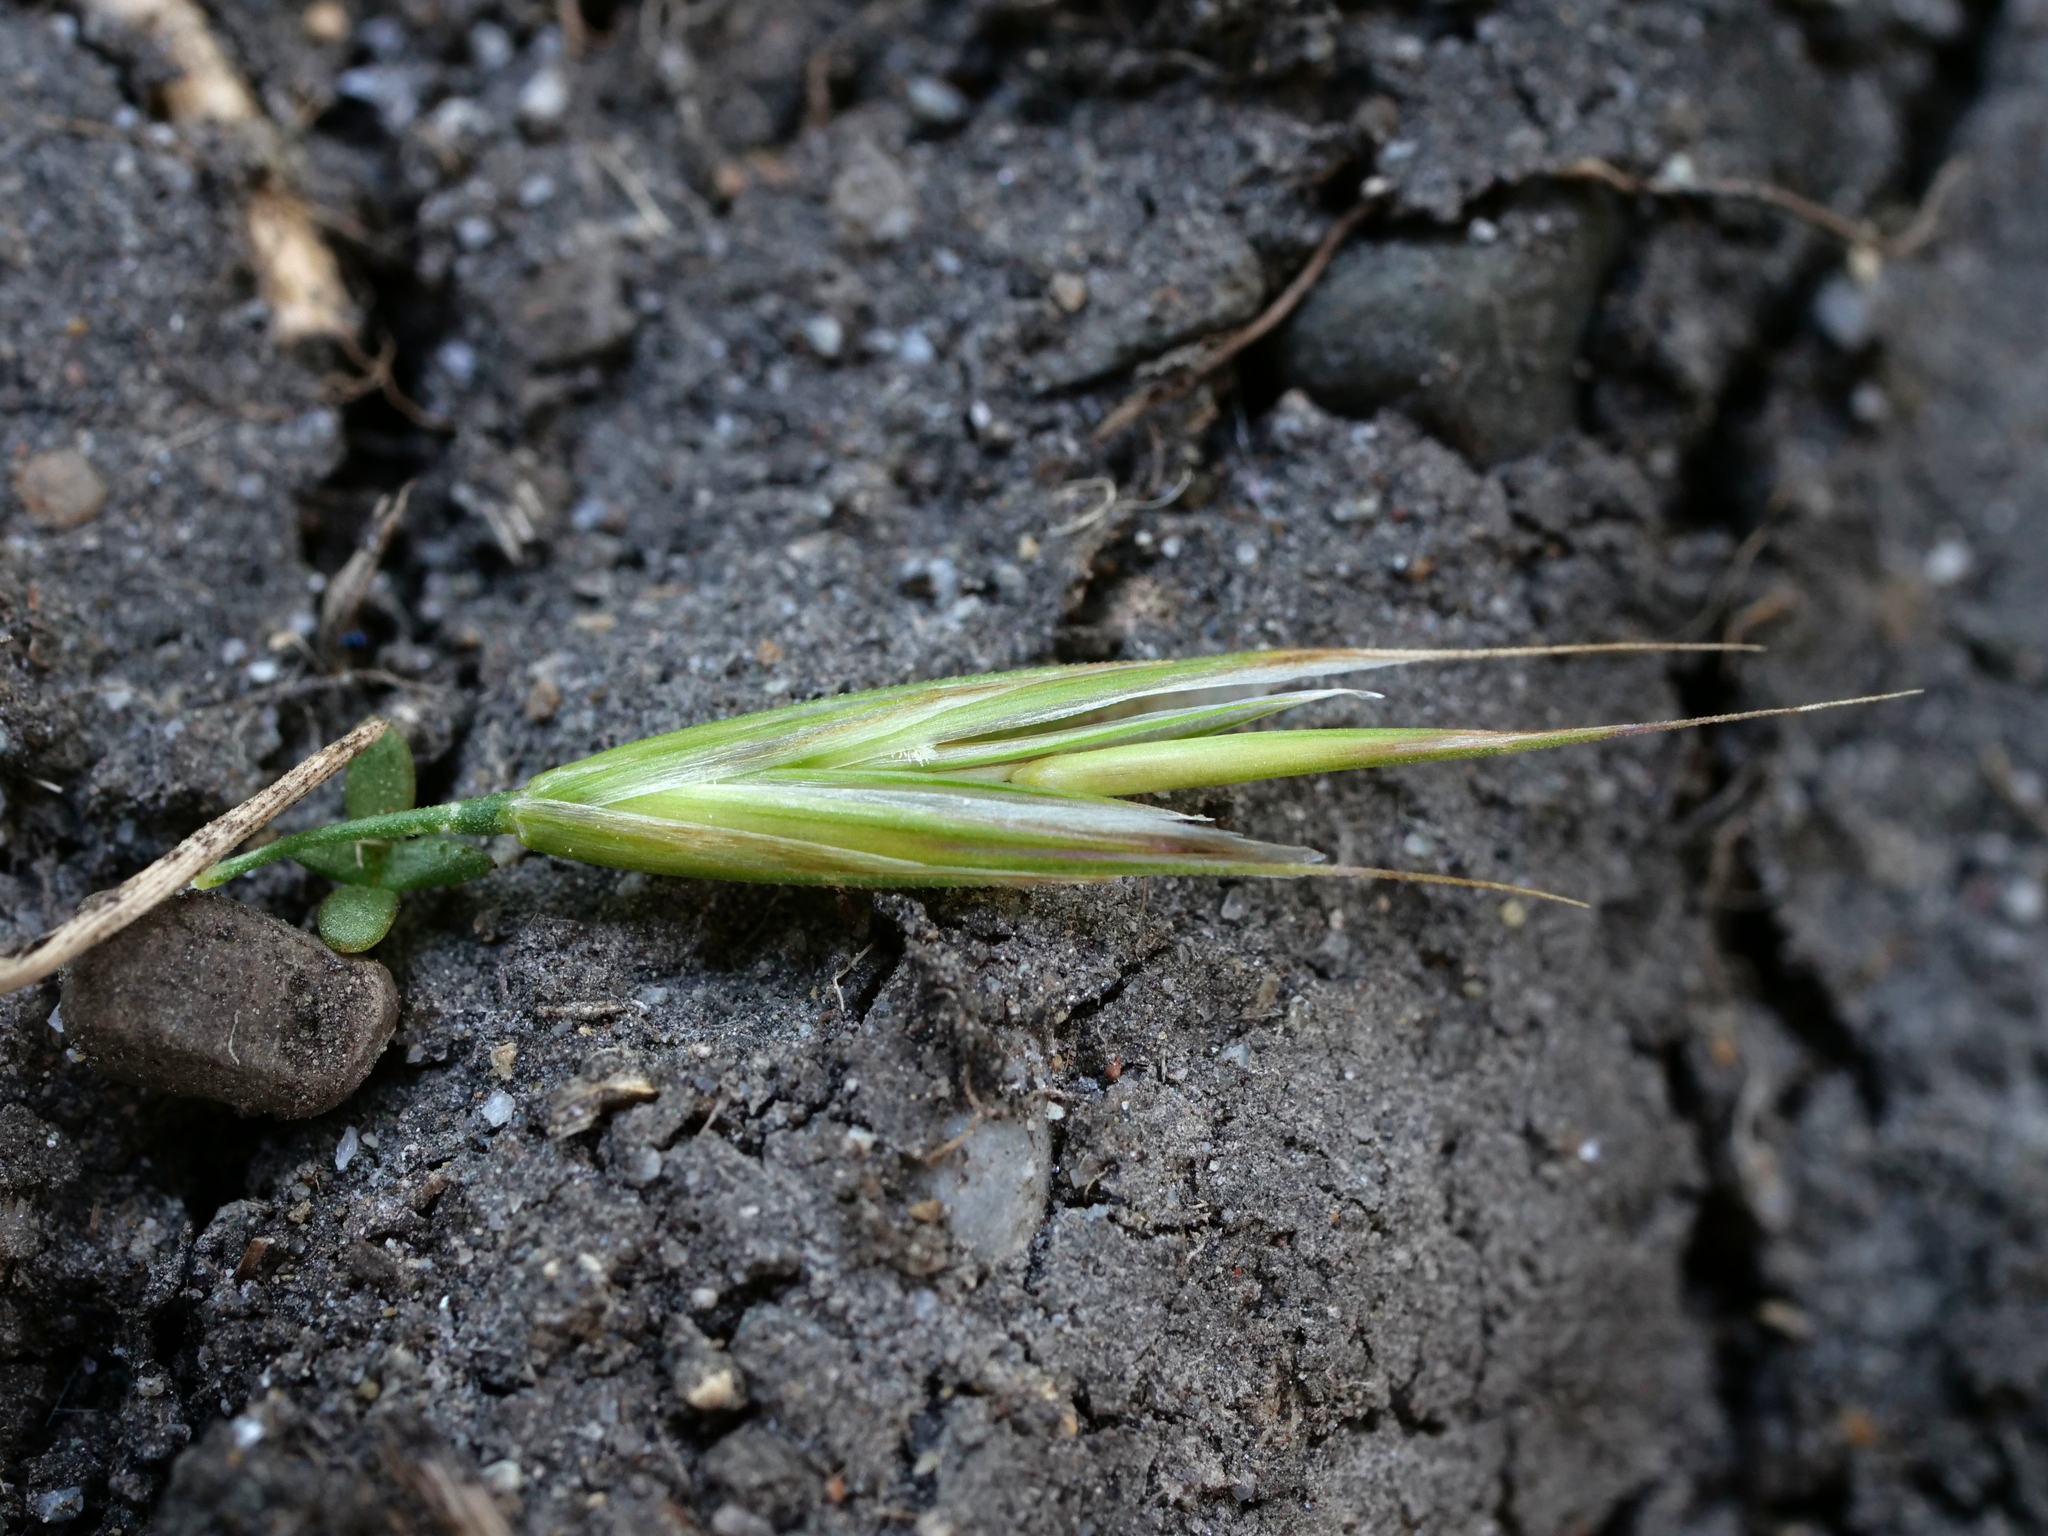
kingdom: Plantae
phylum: Tracheophyta
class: Liliopsida
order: Poales
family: Poaceae
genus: Bromus
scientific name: Bromus erectus
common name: Erect brome
